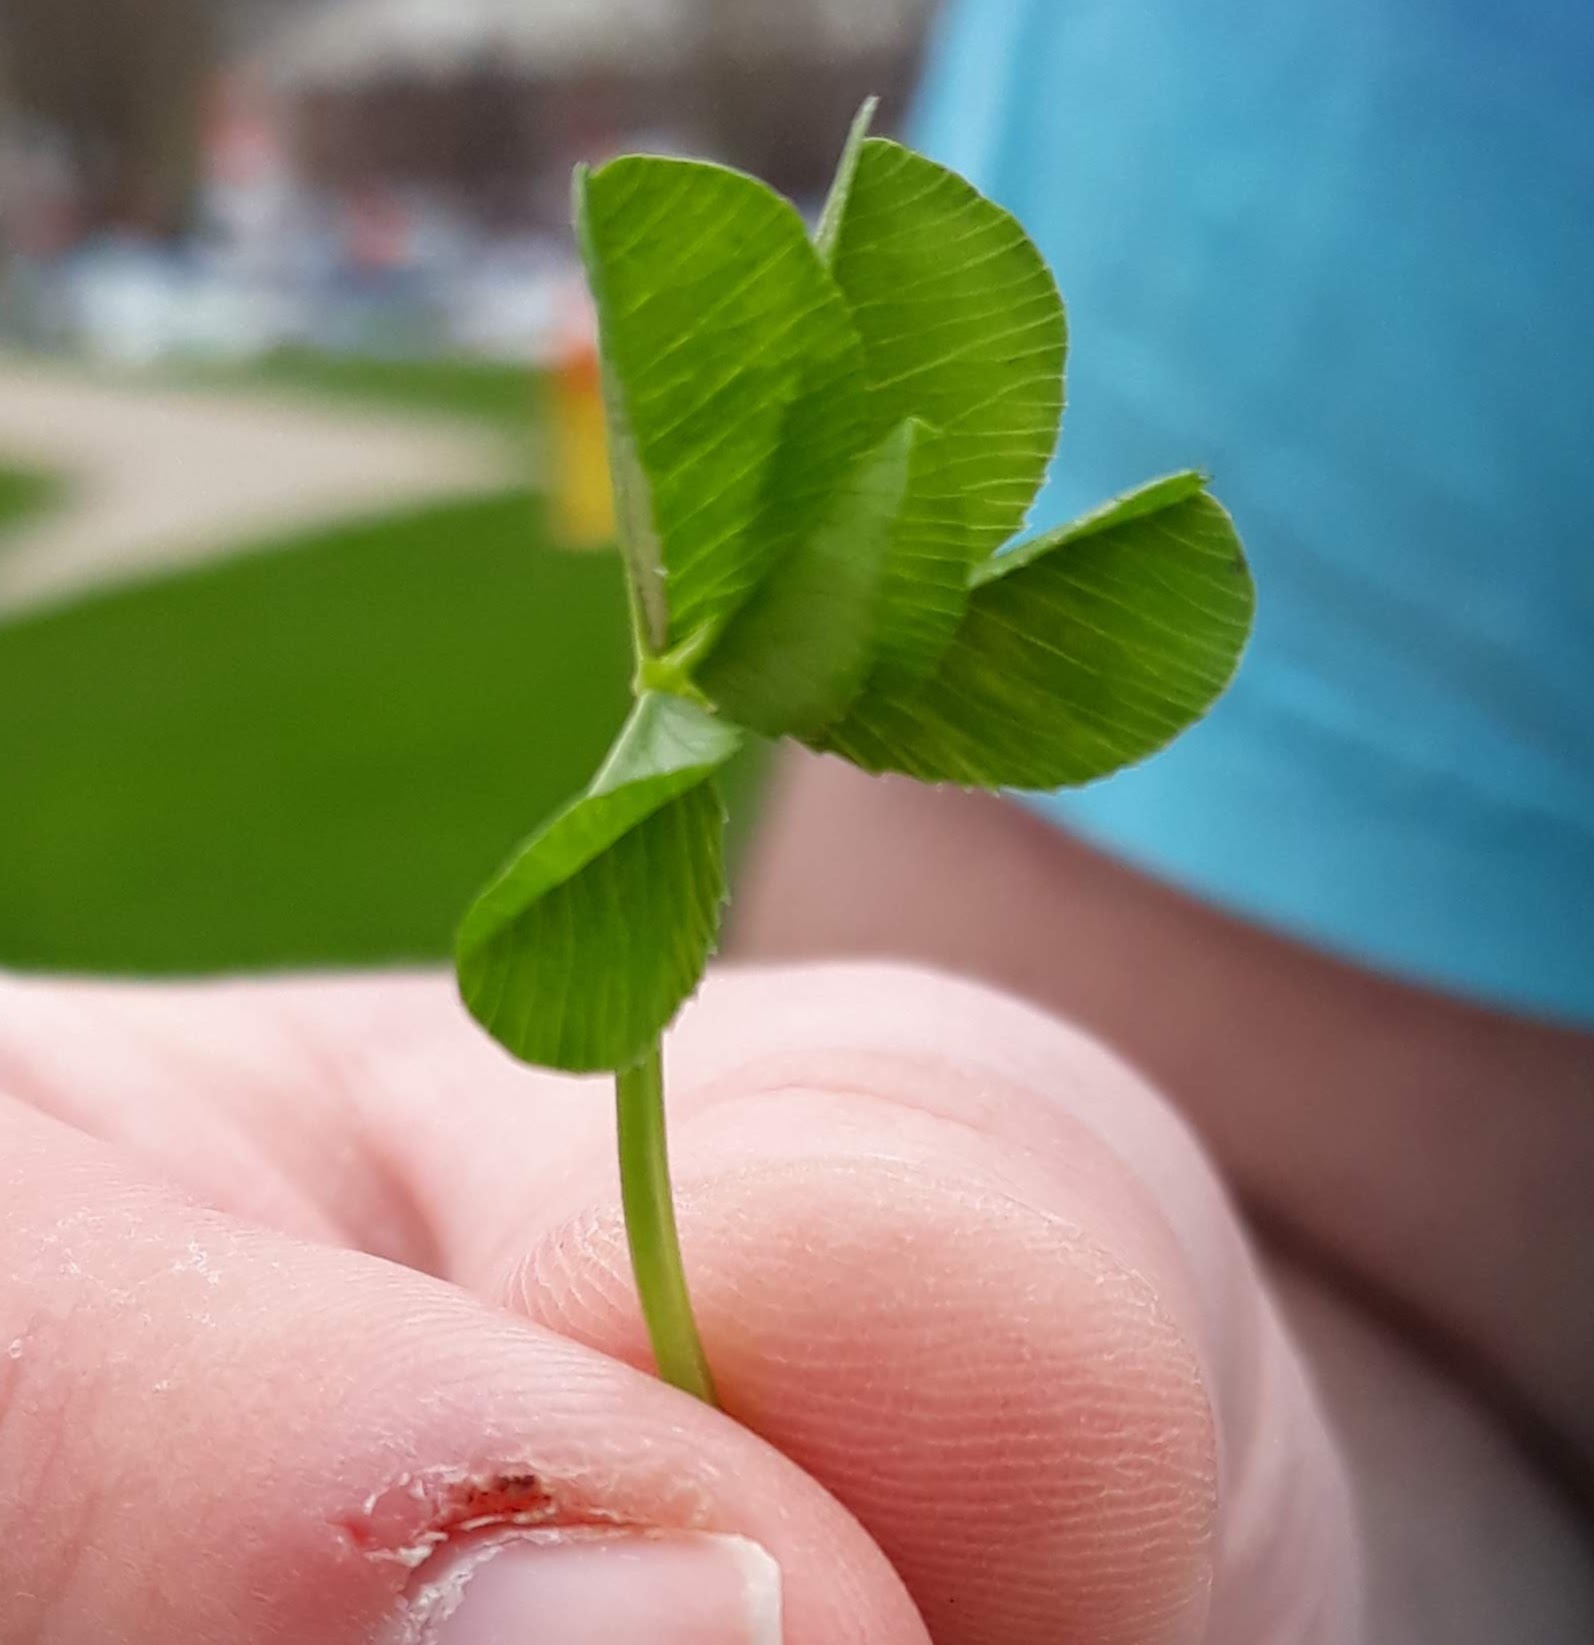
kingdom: Plantae
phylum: Tracheophyta
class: Magnoliopsida
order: Fabales
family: Fabaceae
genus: Trifolium
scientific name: Trifolium repens
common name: White clover
